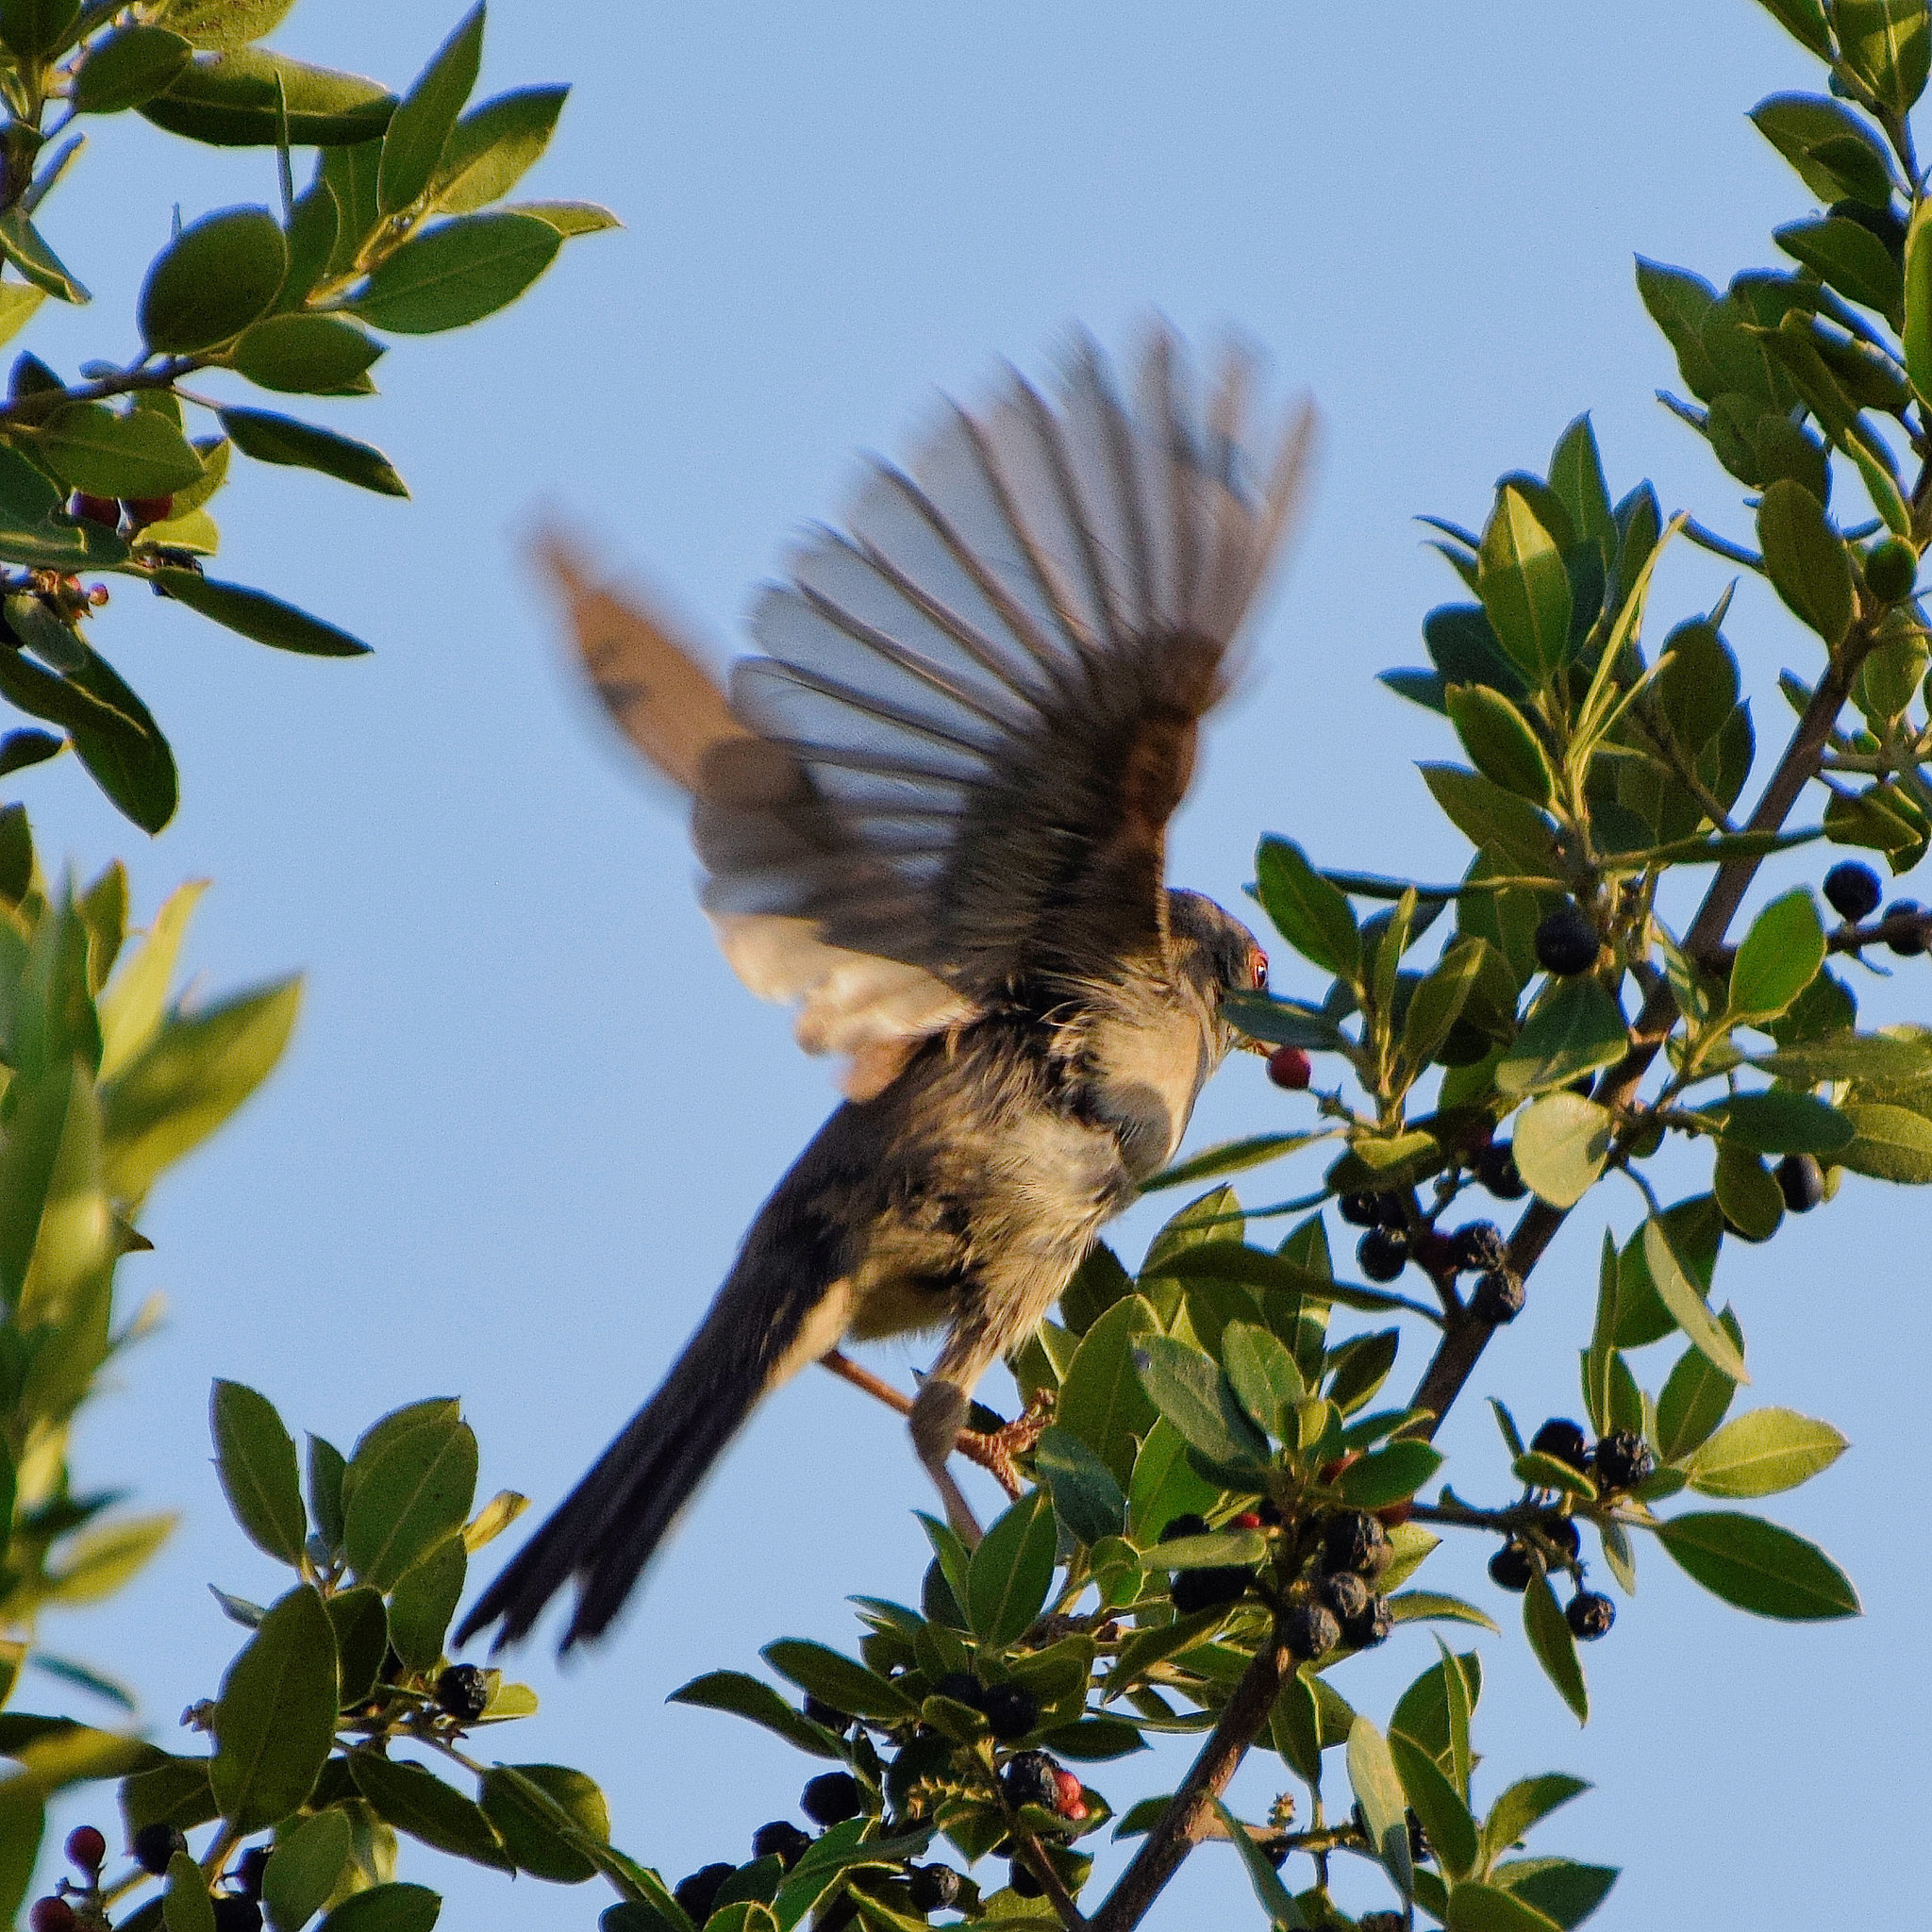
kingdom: Animalia
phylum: Chordata
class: Aves
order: Passeriformes
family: Sylviidae
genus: Curruca
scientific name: Curruca melanocephala
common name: Sardinian warbler
